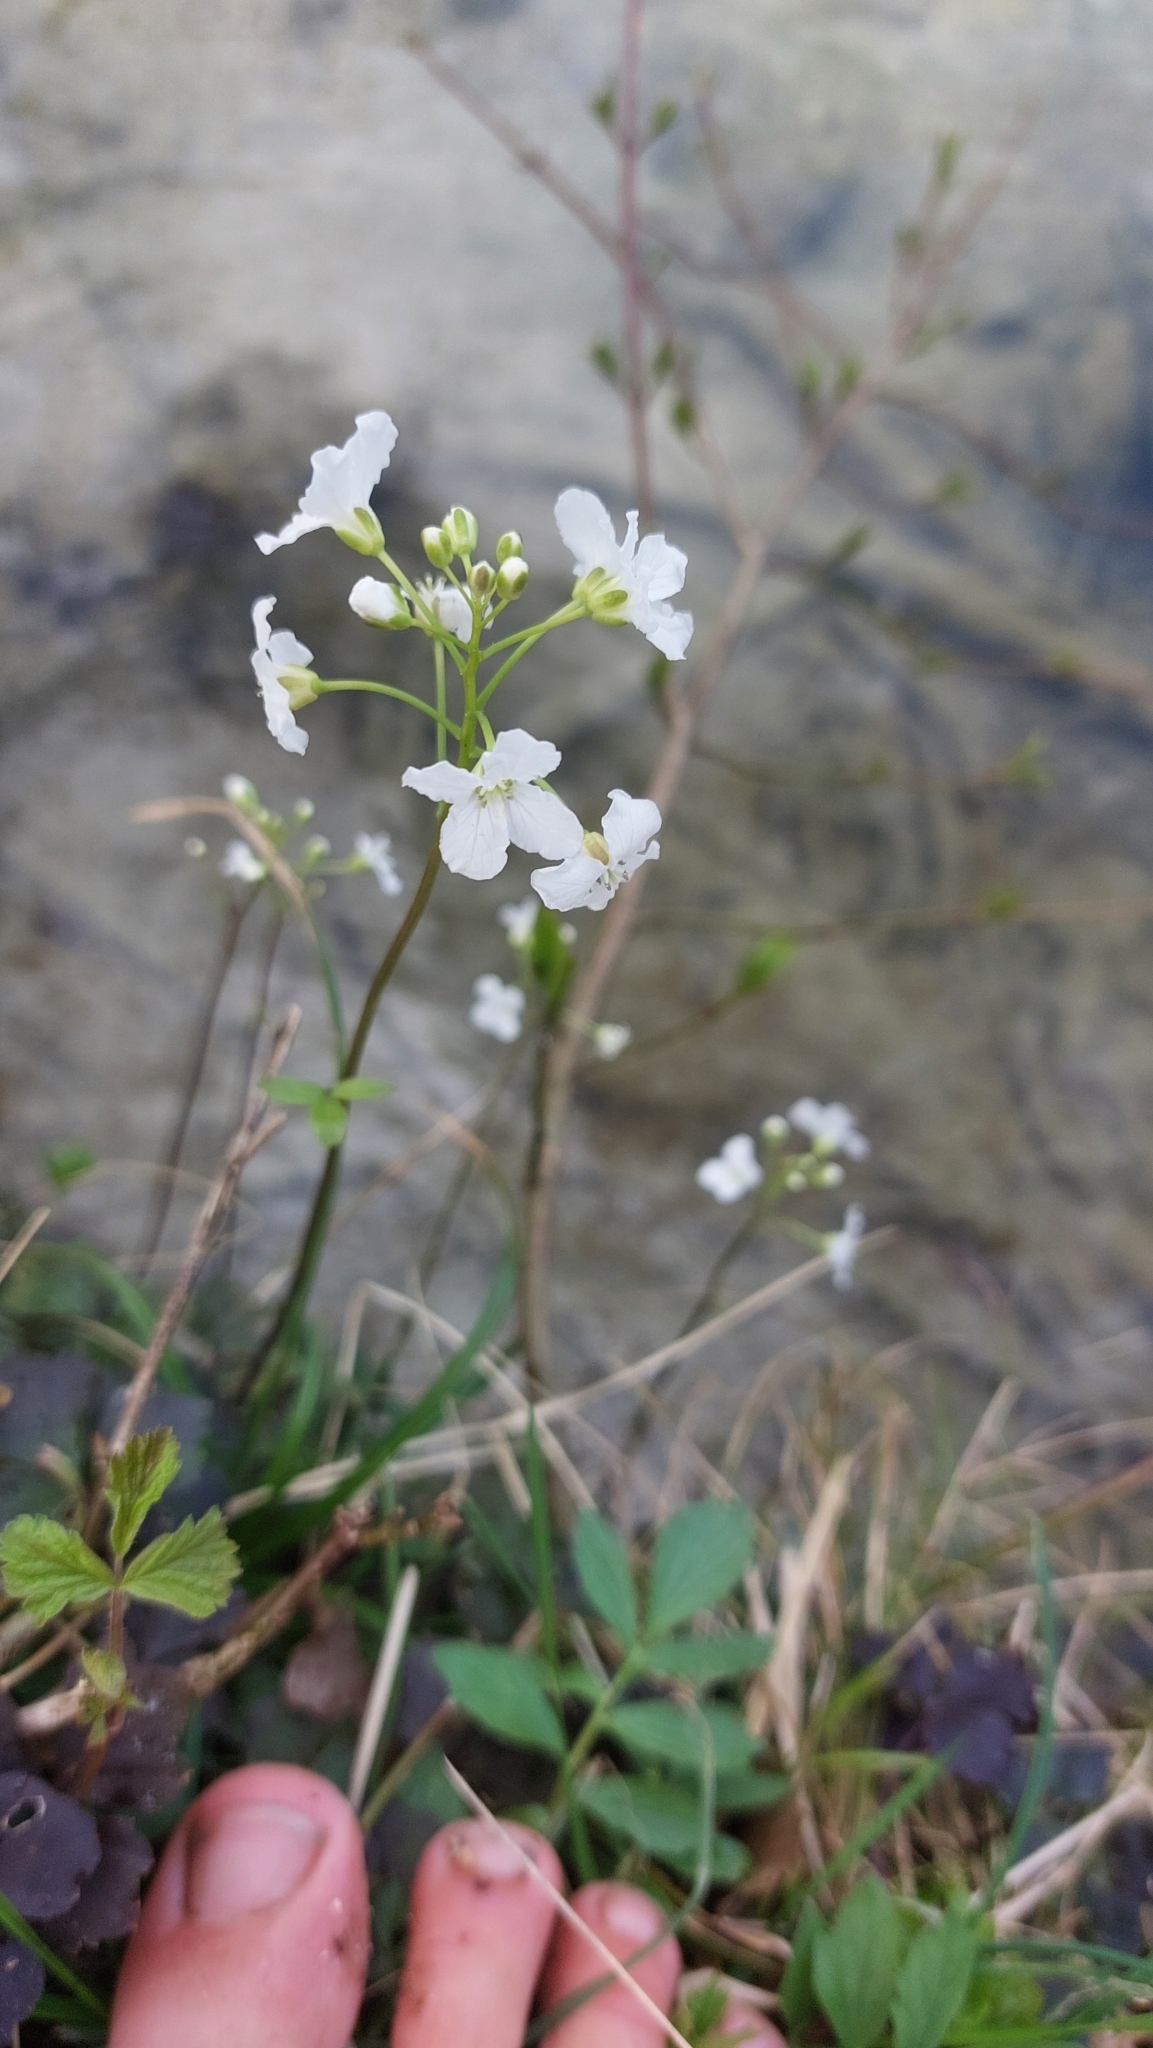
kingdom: Plantae
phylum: Tracheophyta
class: Magnoliopsida
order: Brassicales
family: Brassicaceae
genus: Cardamine
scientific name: Cardamine trifolia
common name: Trefoil cress
